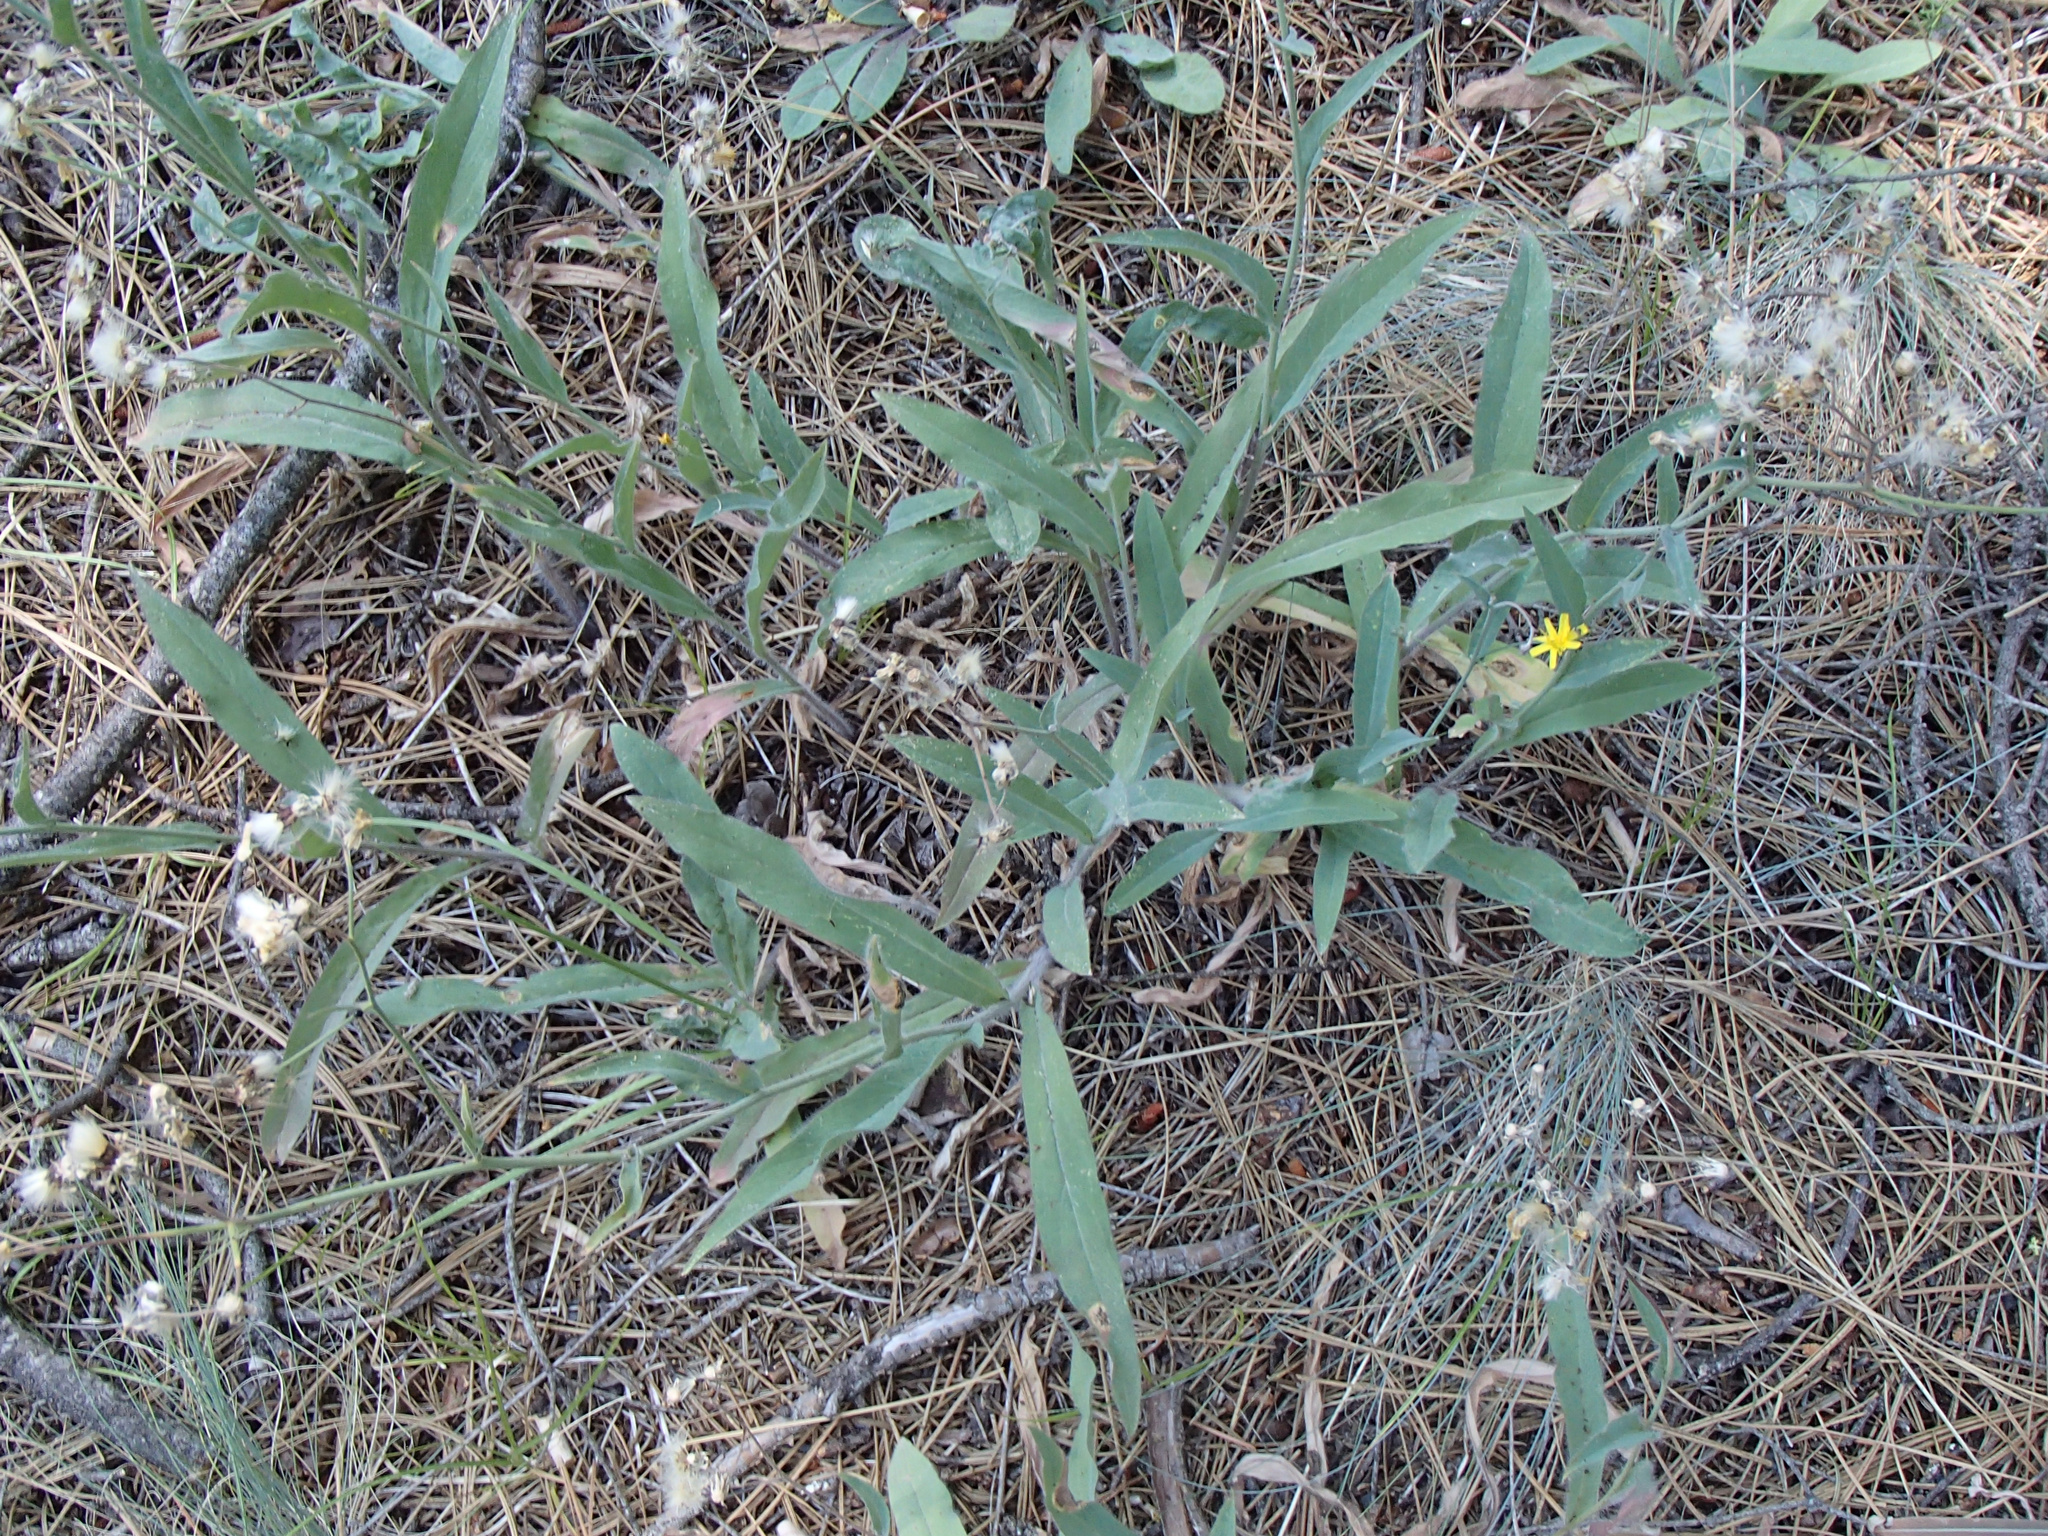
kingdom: Plantae
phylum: Tracheophyta
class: Magnoliopsida
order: Asterales
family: Asteraceae
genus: Hieracium
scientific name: Hieracium scouleri
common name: Hound's-tongue hawkweed
